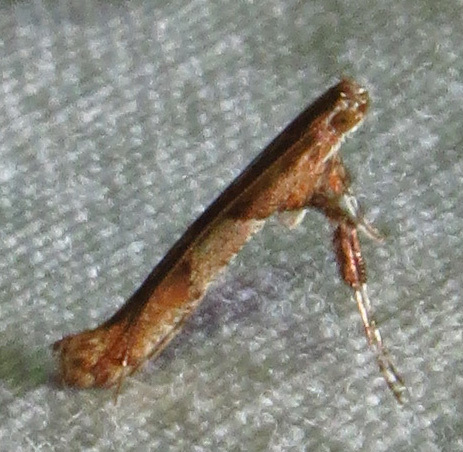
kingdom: Animalia
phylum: Arthropoda
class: Insecta
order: Lepidoptera
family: Gracillariidae
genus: Caloptilia
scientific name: Caloptilia negundella
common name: Leafminer
